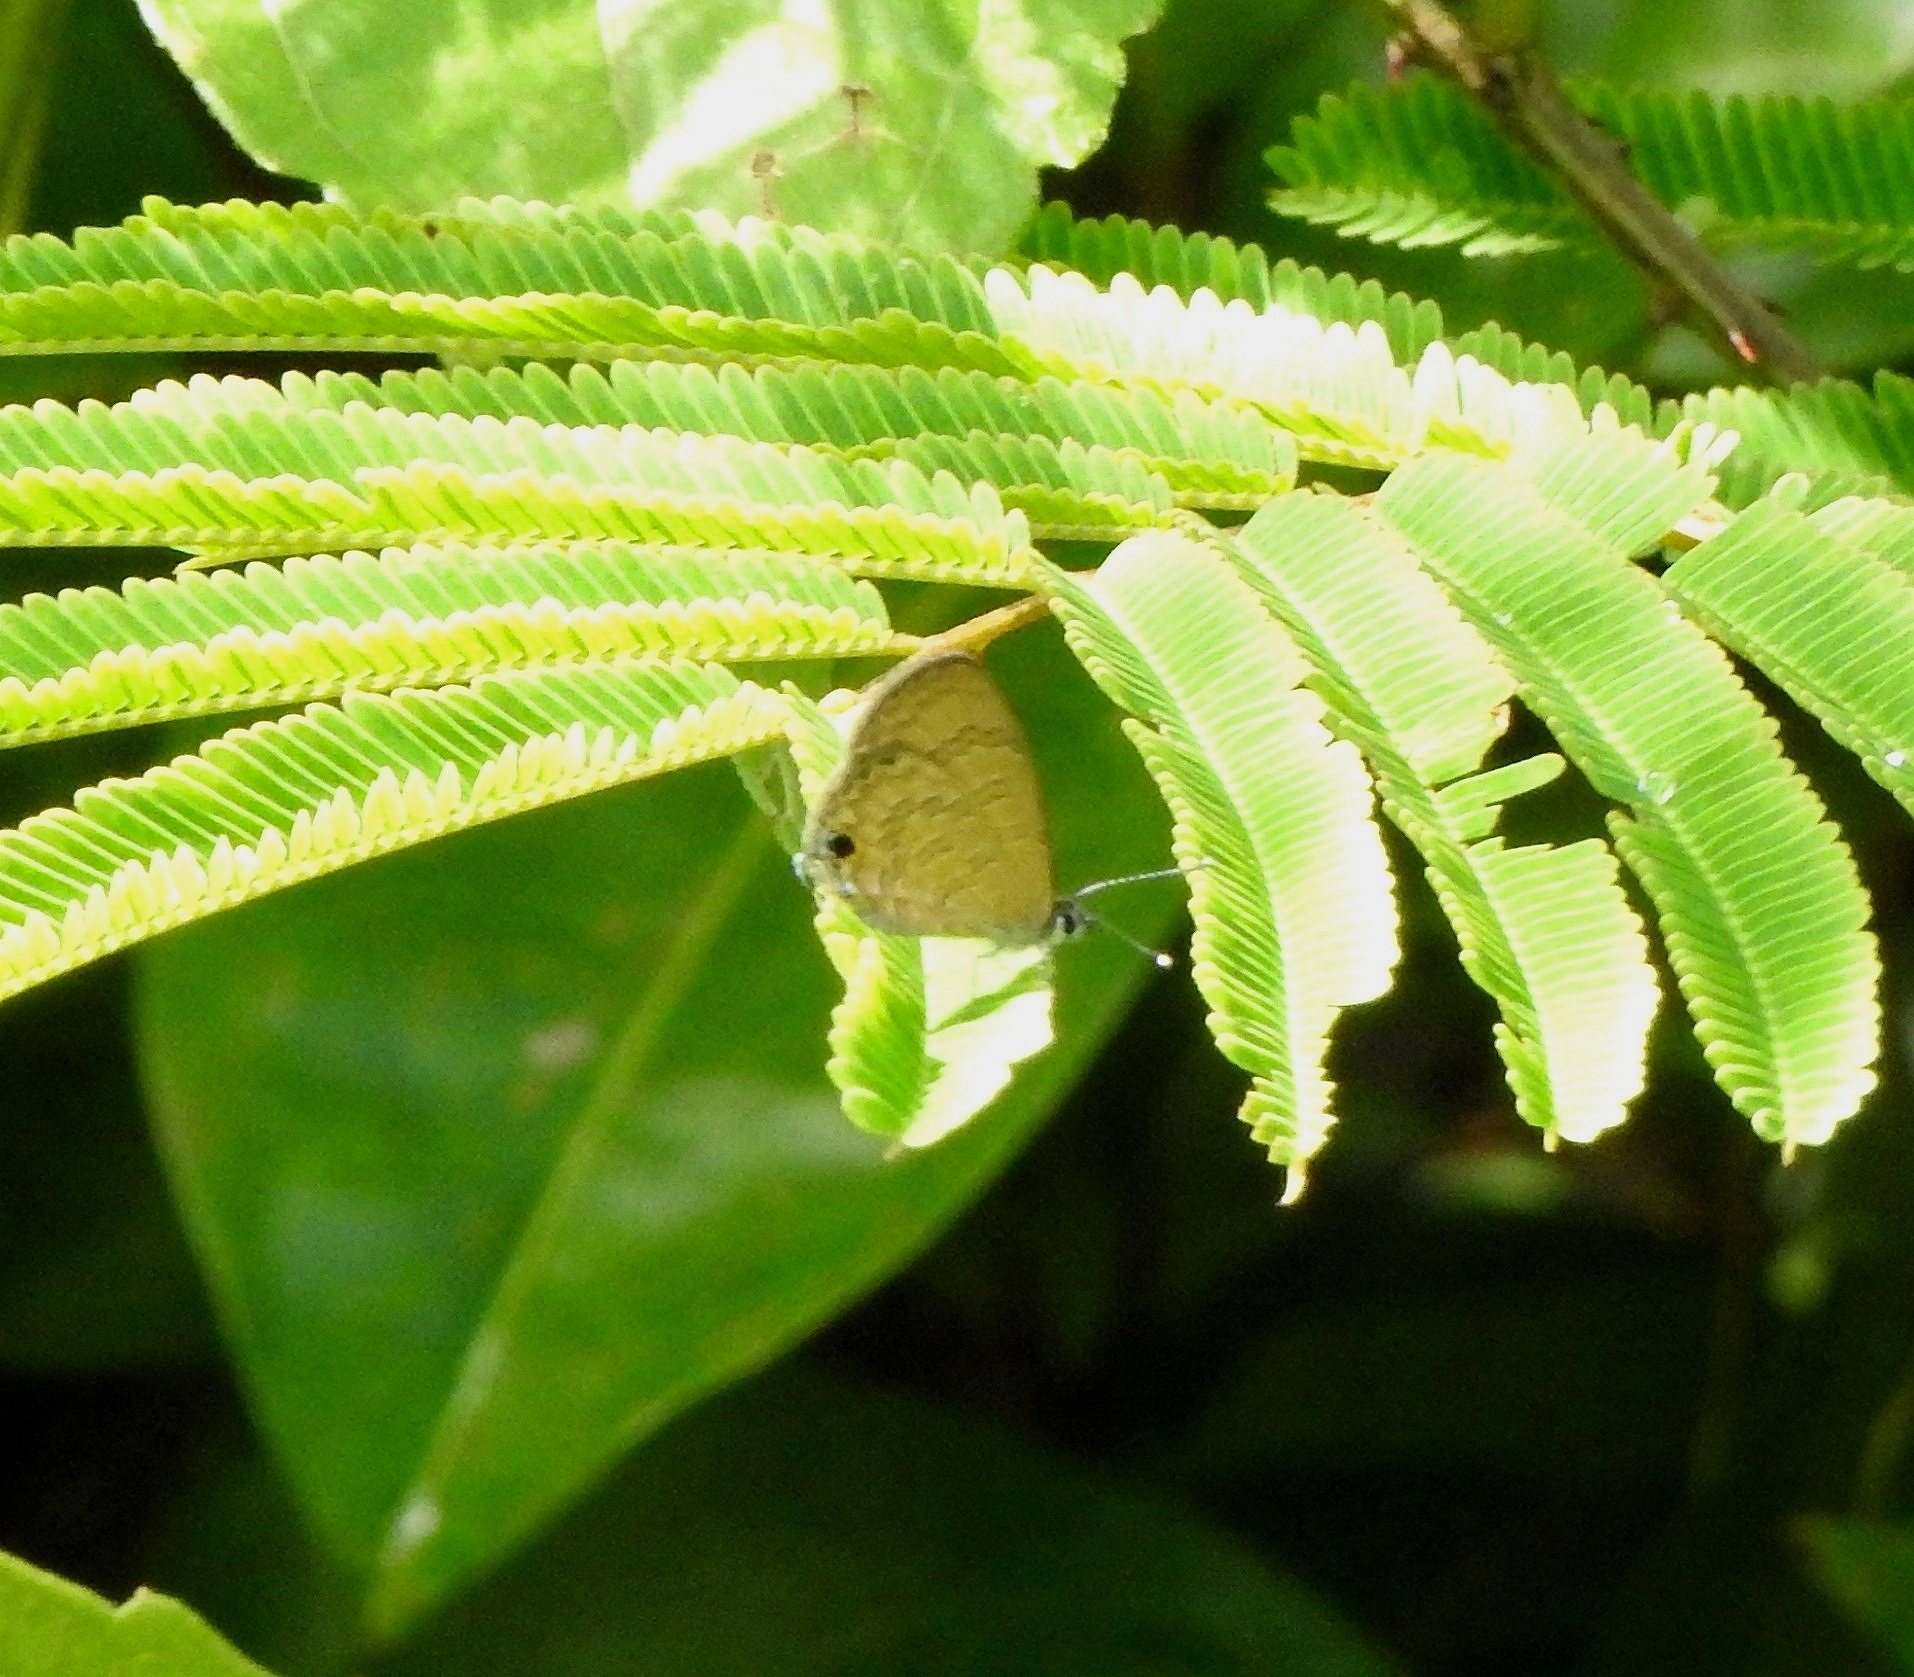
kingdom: Animalia
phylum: Arthropoda
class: Insecta
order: Lepidoptera
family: Lycaenidae
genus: Prosotas
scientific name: Prosotas nora
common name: Common line blue
